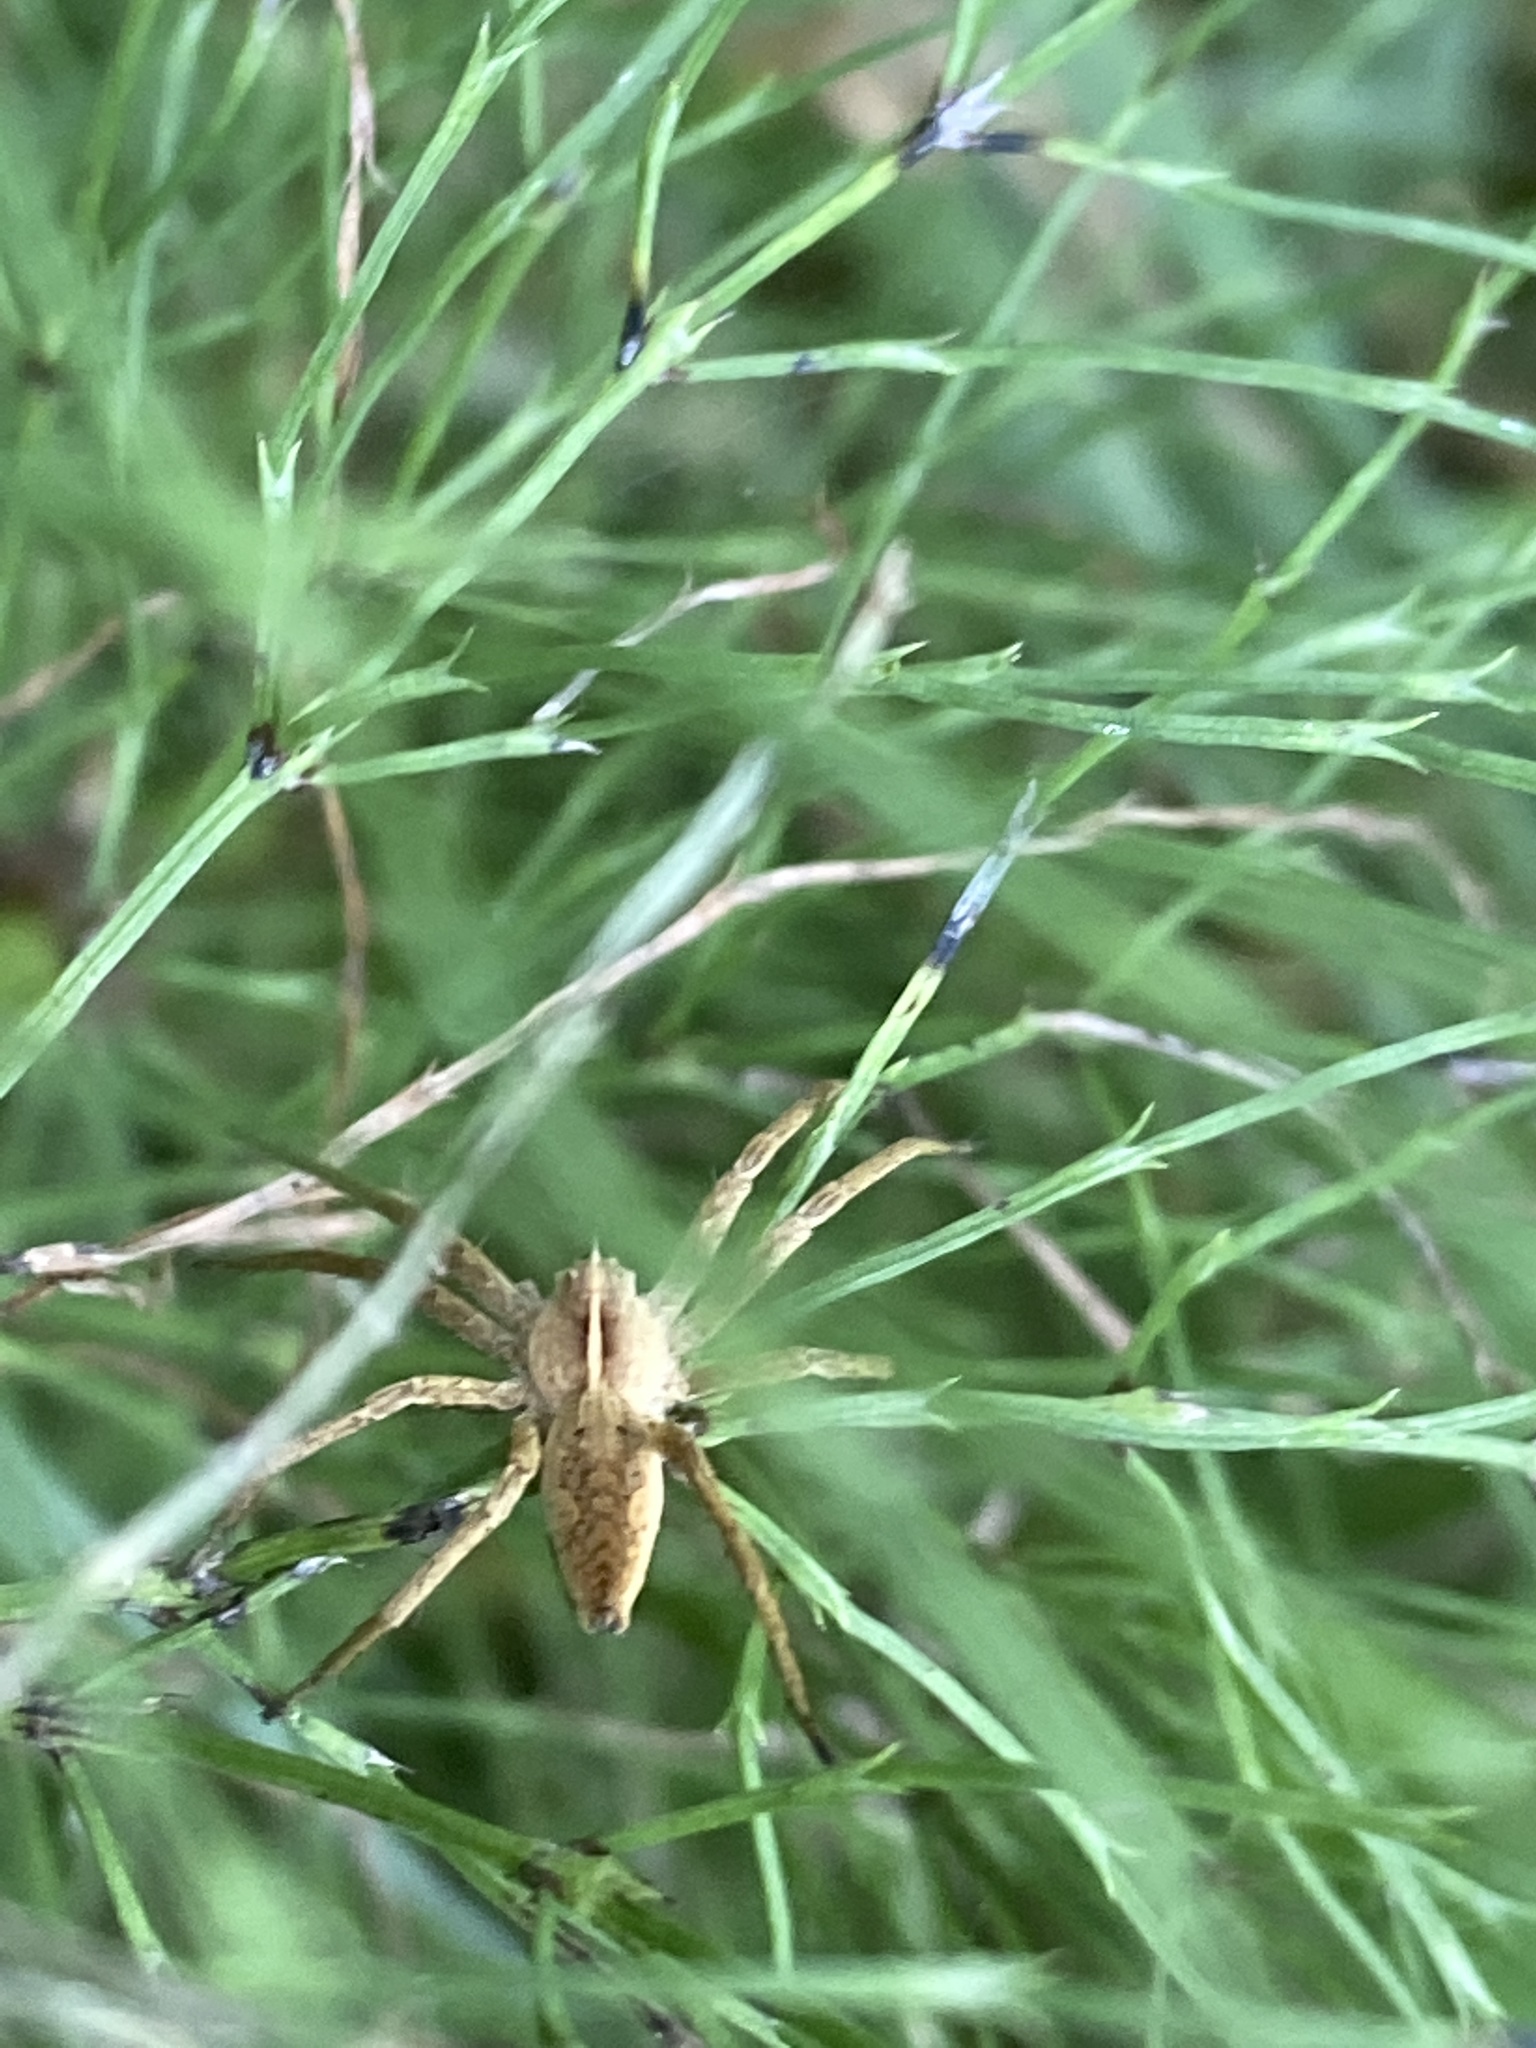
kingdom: Animalia
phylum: Arthropoda
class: Arachnida
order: Araneae
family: Pisauridae
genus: Pisaura
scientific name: Pisaura mirabilis
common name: Tent spider
